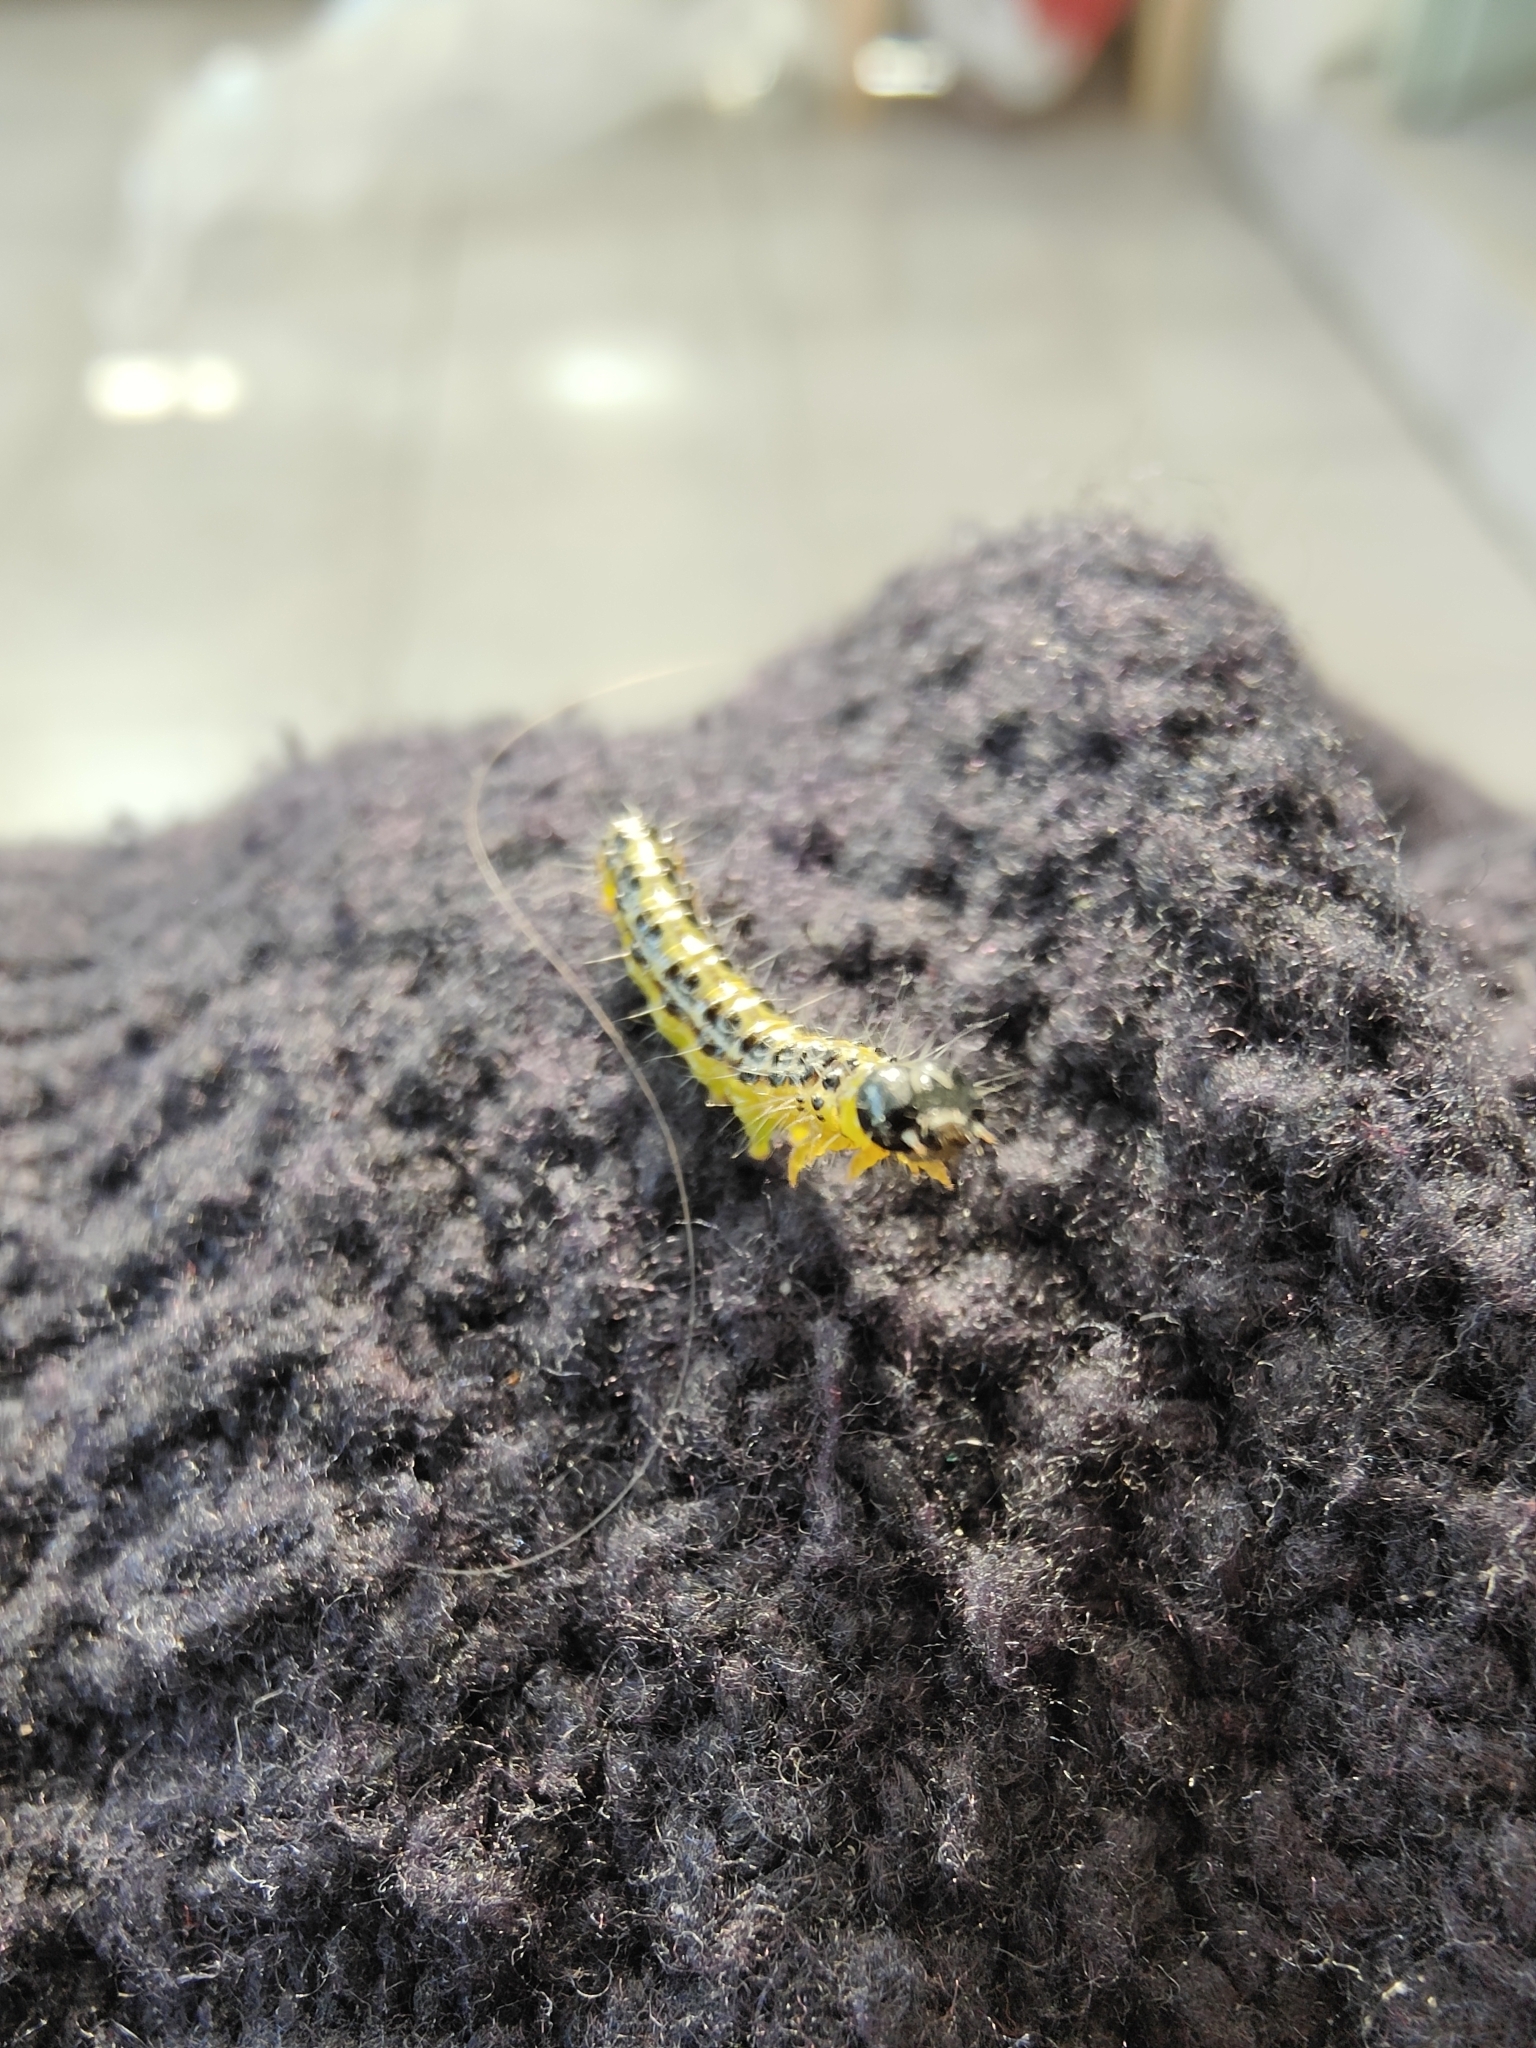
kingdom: Animalia
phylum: Arthropoda
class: Insecta
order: Lepidoptera
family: Crambidae
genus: Cydalima
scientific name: Cydalima perspectalis
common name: Box tree moth
